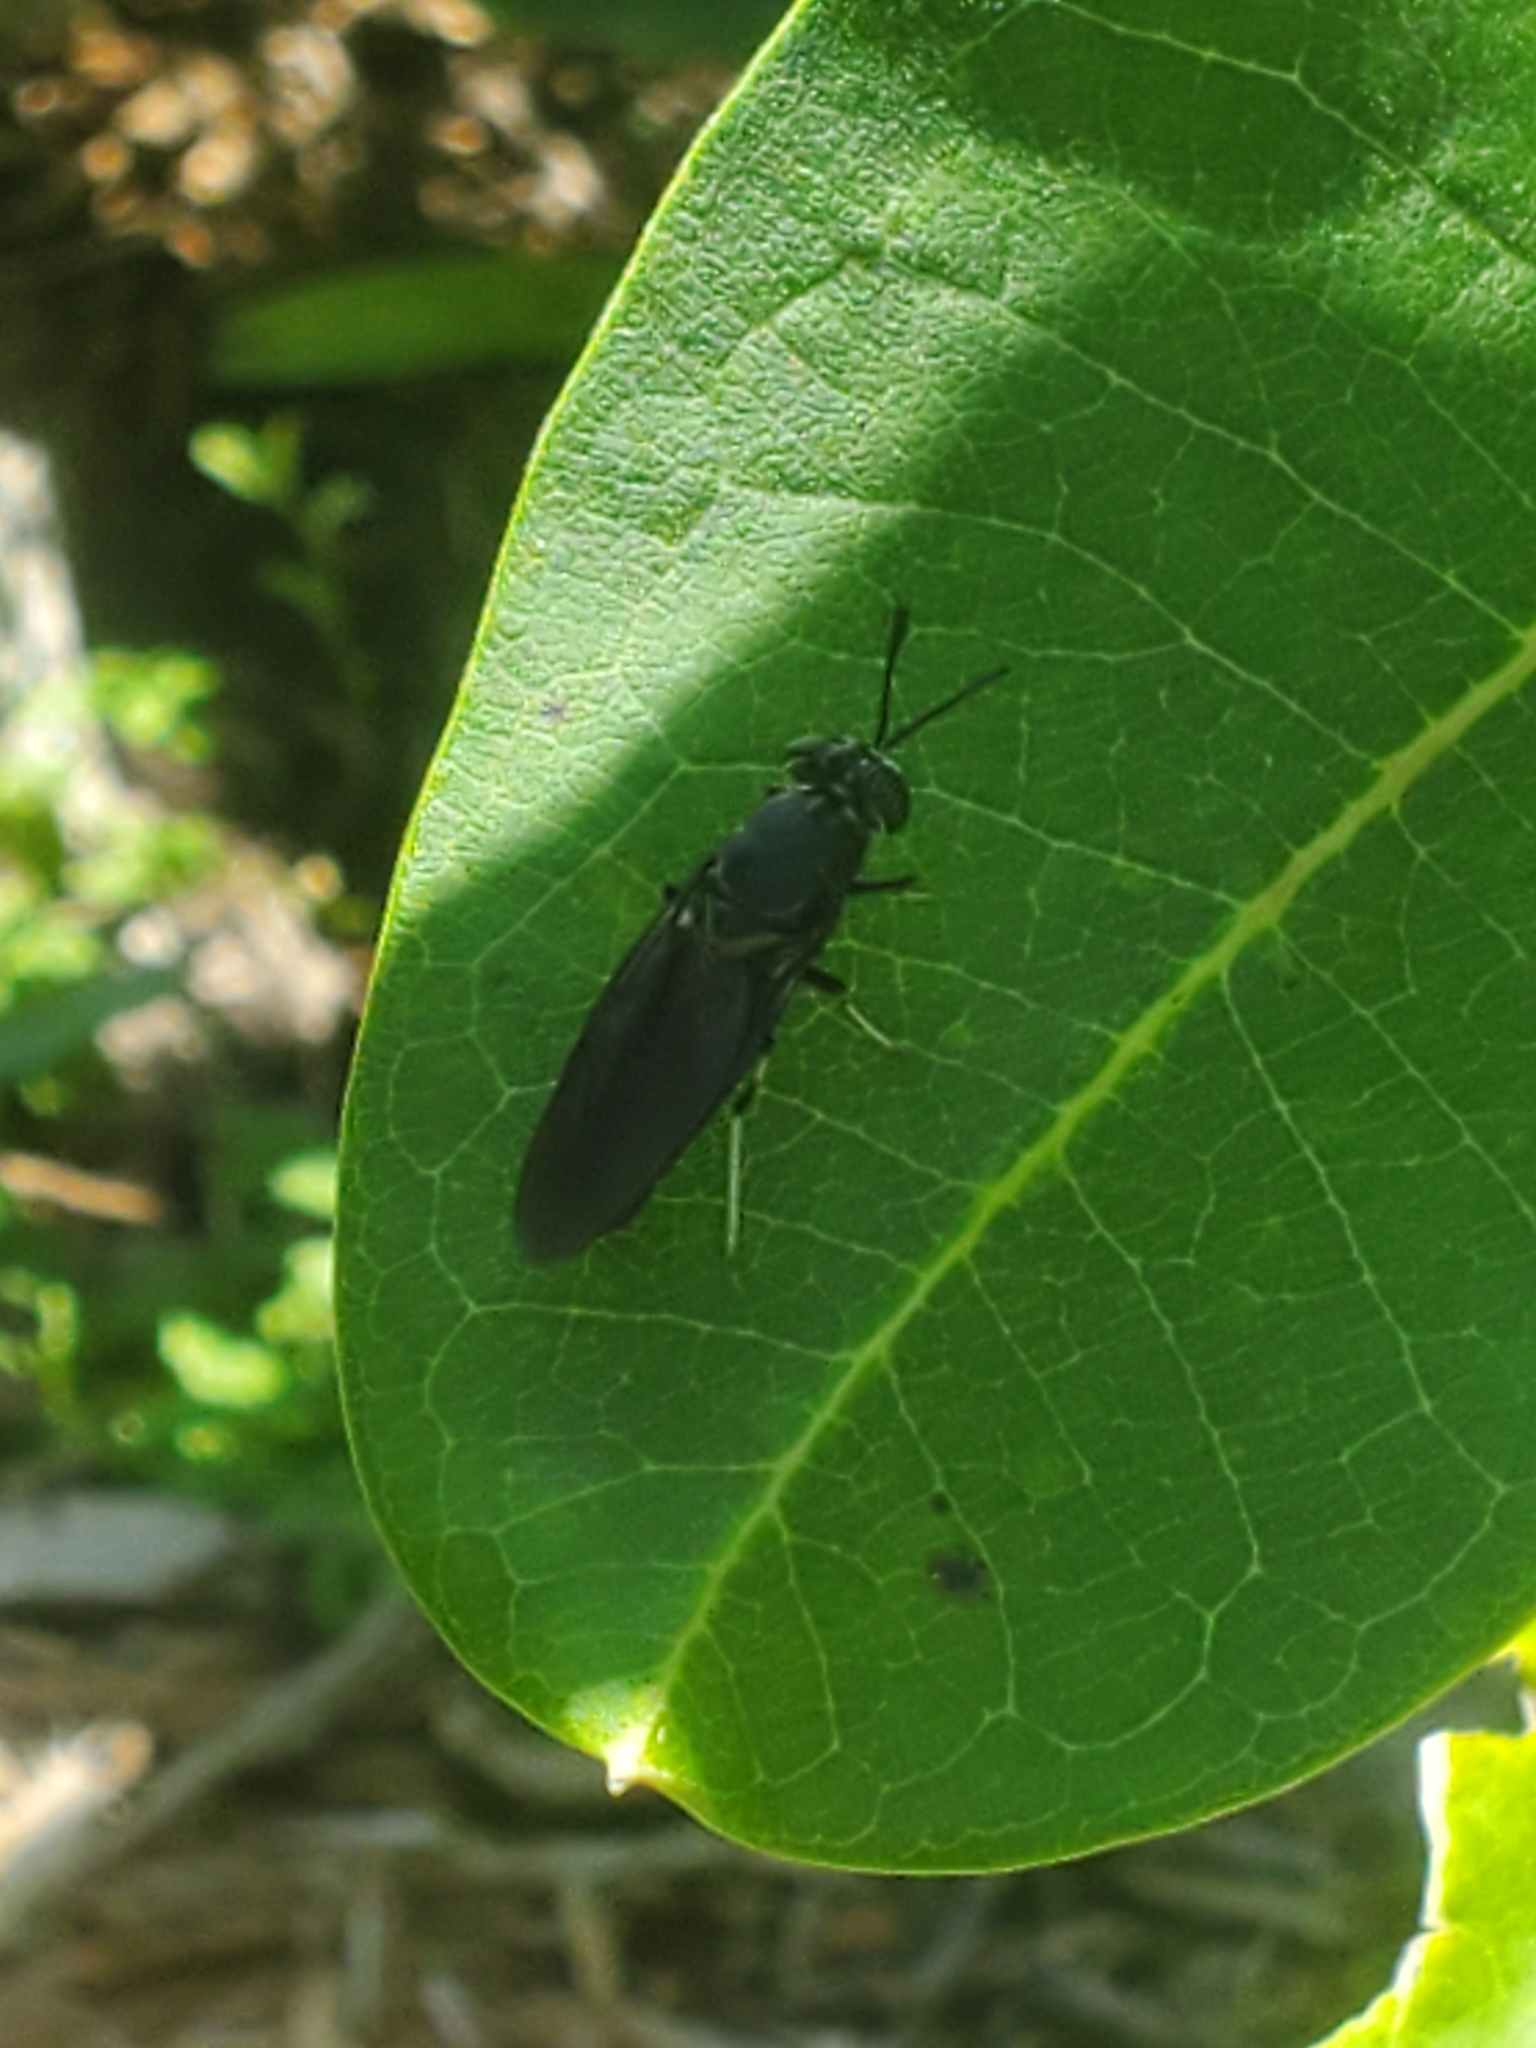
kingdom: Animalia
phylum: Arthropoda
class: Insecta
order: Diptera
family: Stratiomyidae
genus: Hermetia
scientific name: Hermetia illucens
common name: Black soldier fly
